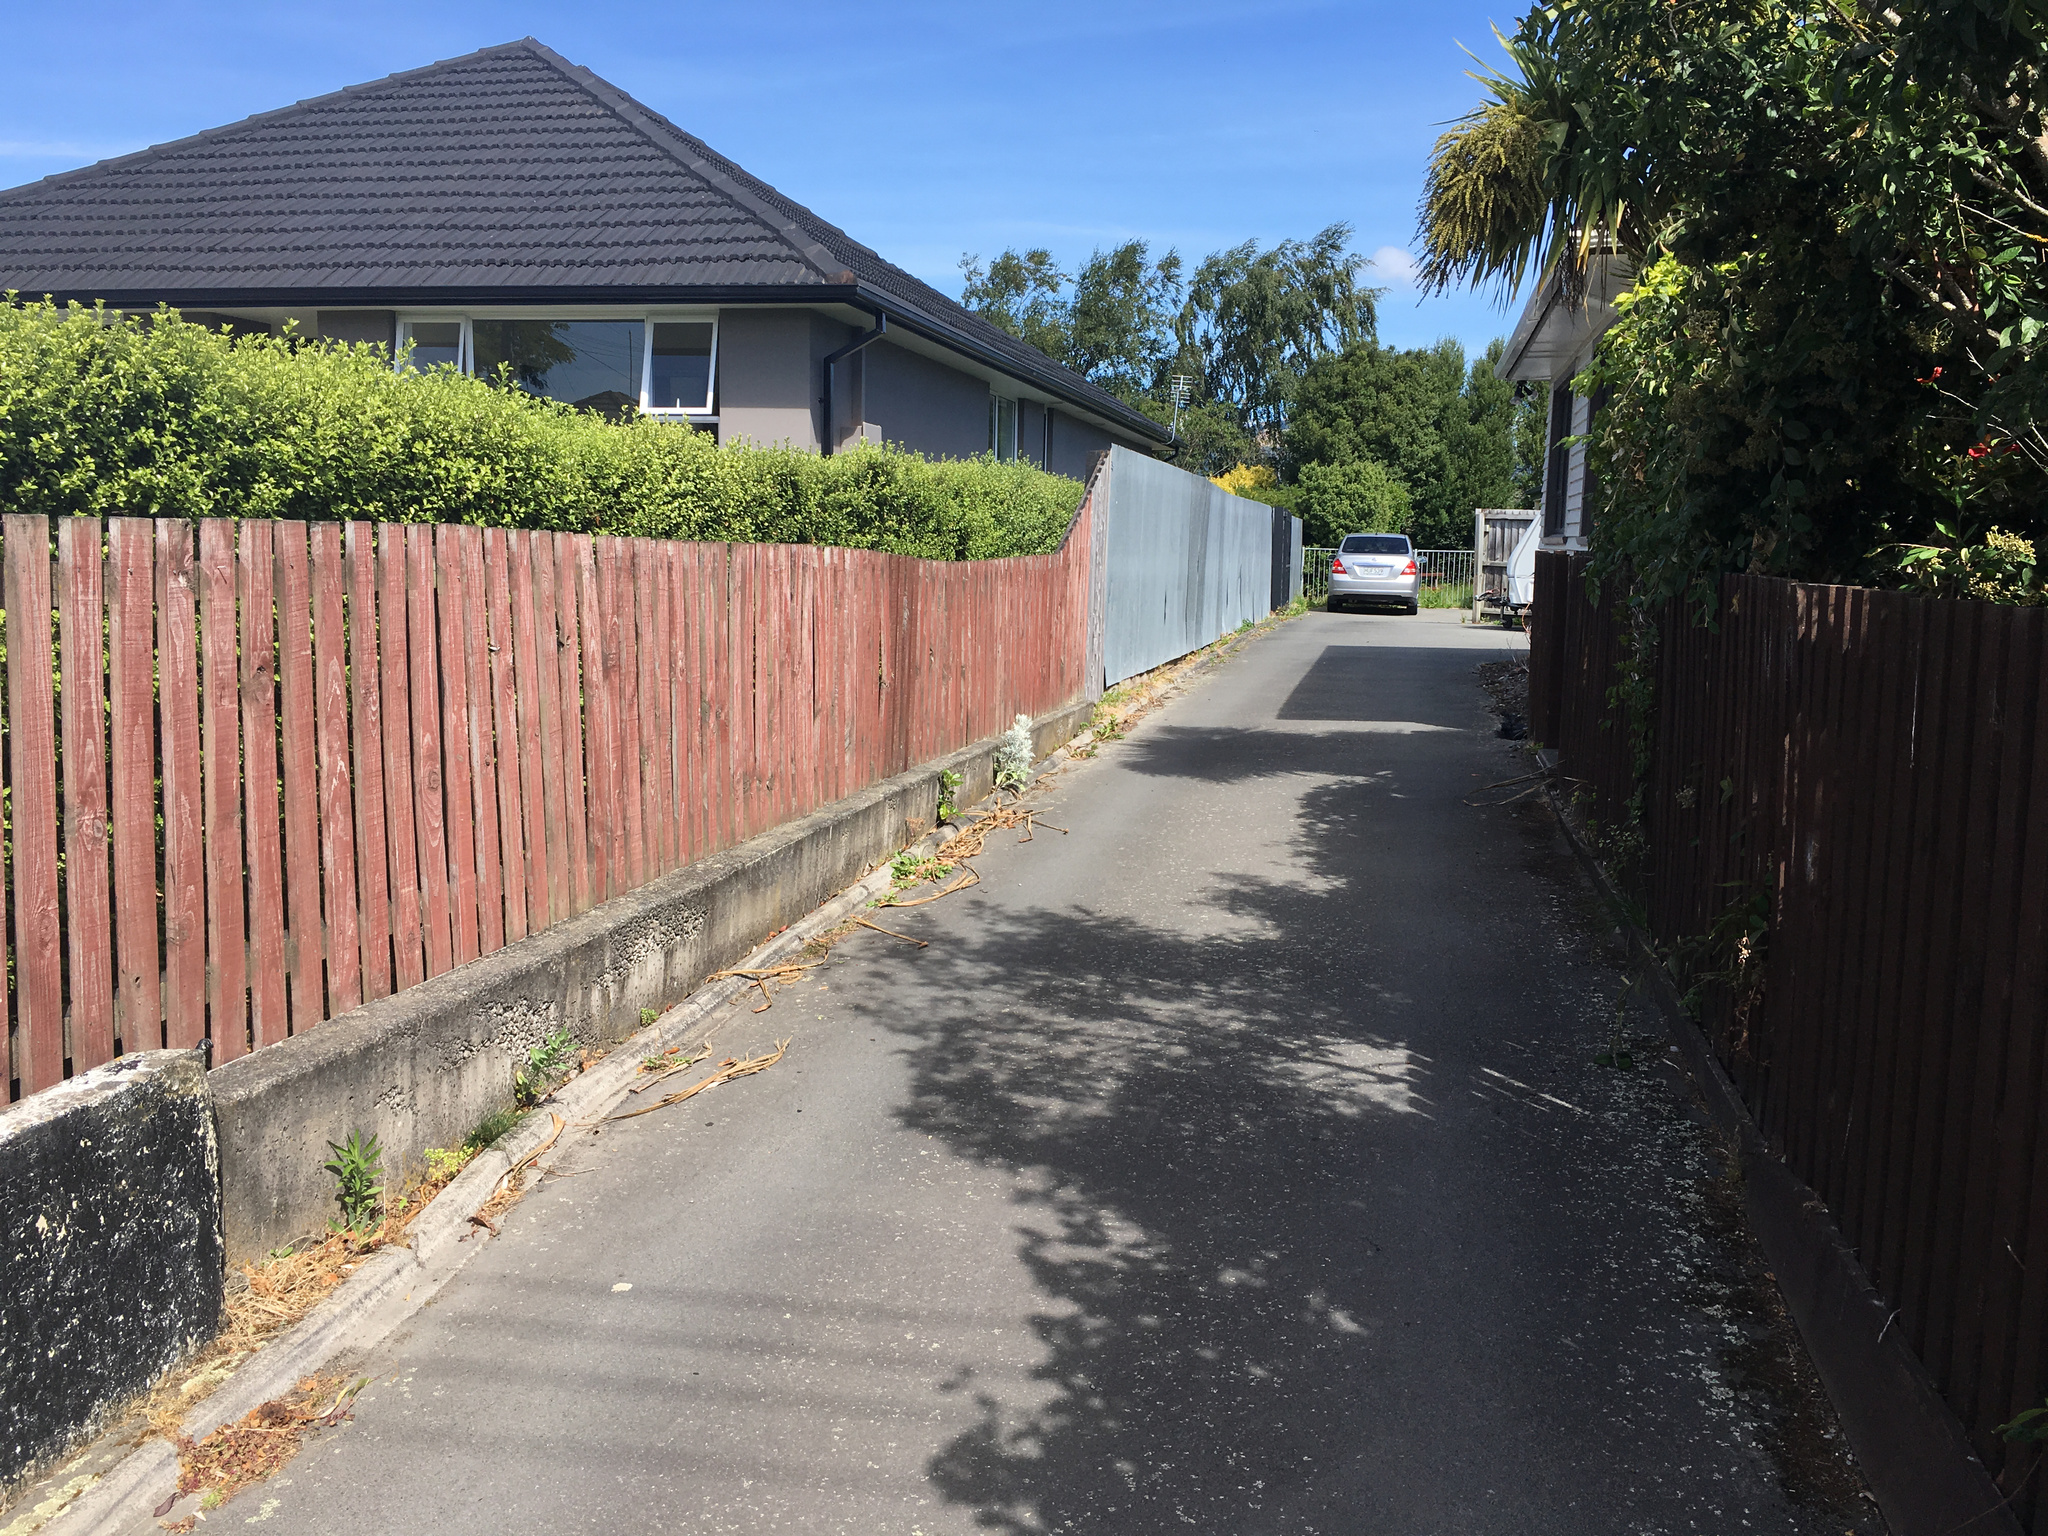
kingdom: Plantae
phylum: Tracheophyta
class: Magnoliopsida
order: Asterales
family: Asteraceae
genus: Jacobaea
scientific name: Jacobaea maritima
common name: Silver ragwort
